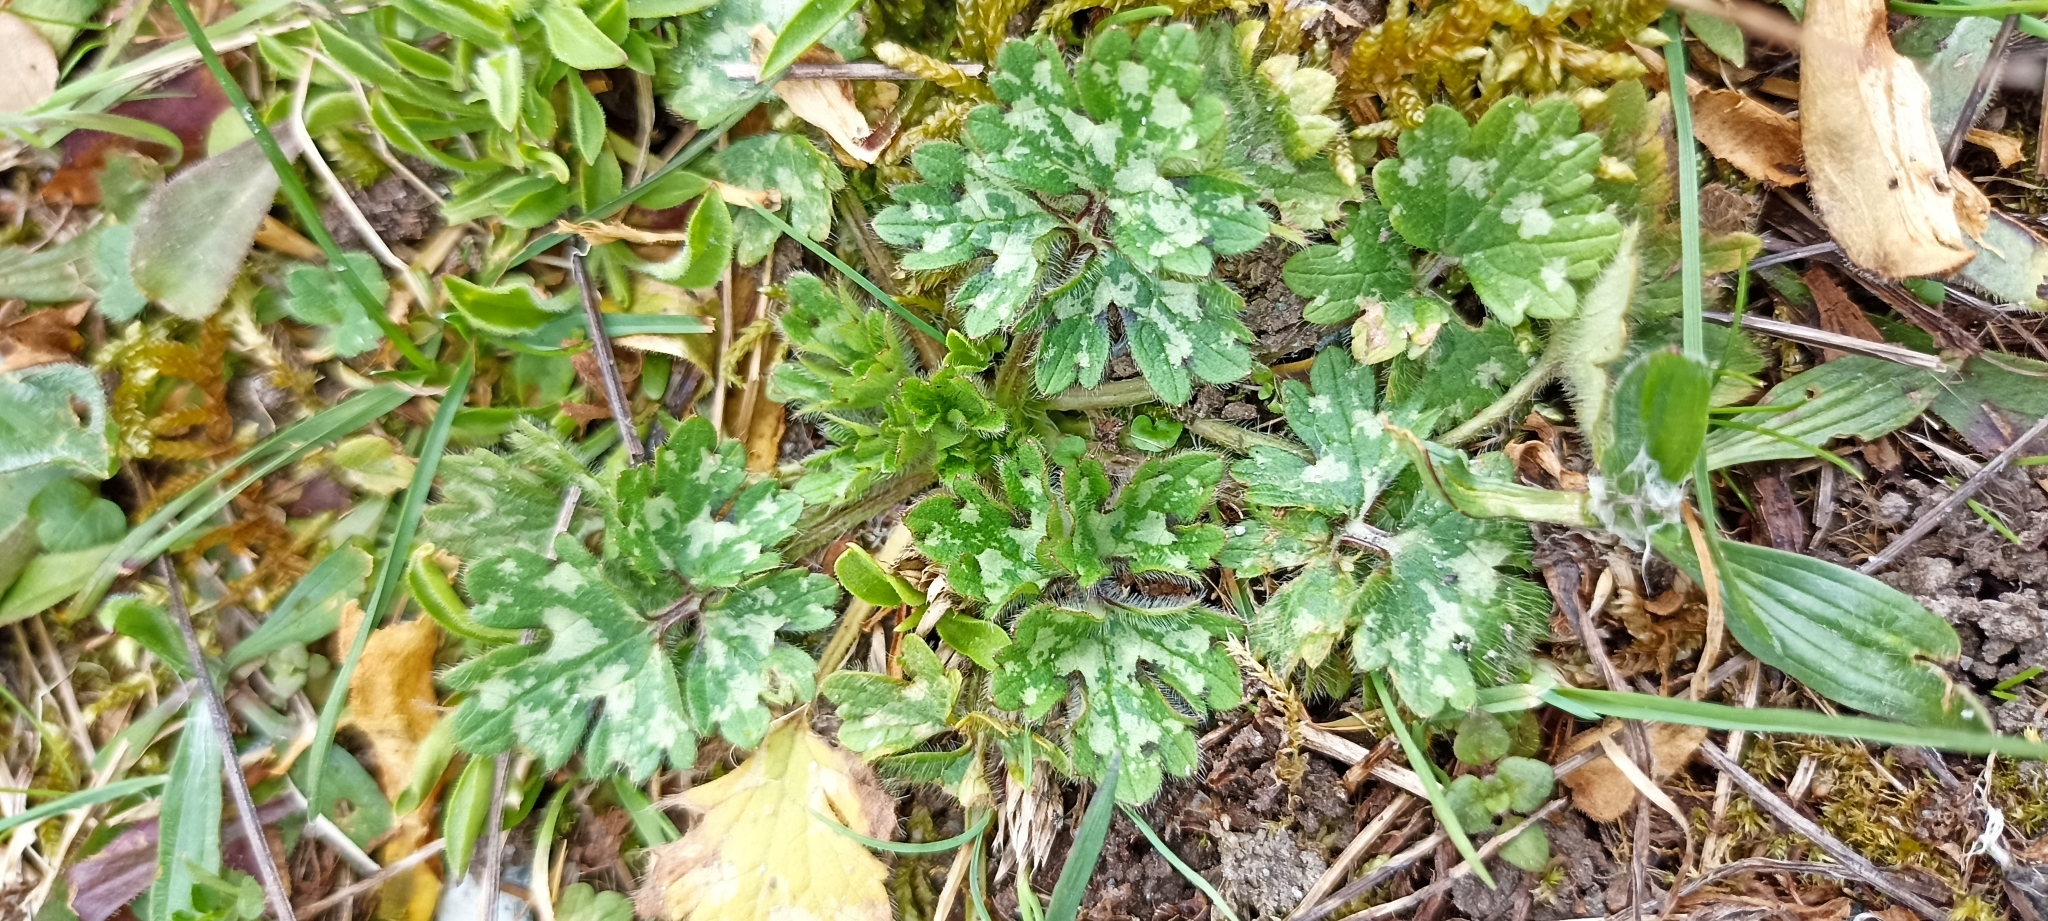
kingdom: Plantae
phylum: Tracheophyta
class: Magnoliopsida
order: Asterales
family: Asteraceae
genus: Tanacetum
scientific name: Tanacetum parthenium
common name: Feverfew
